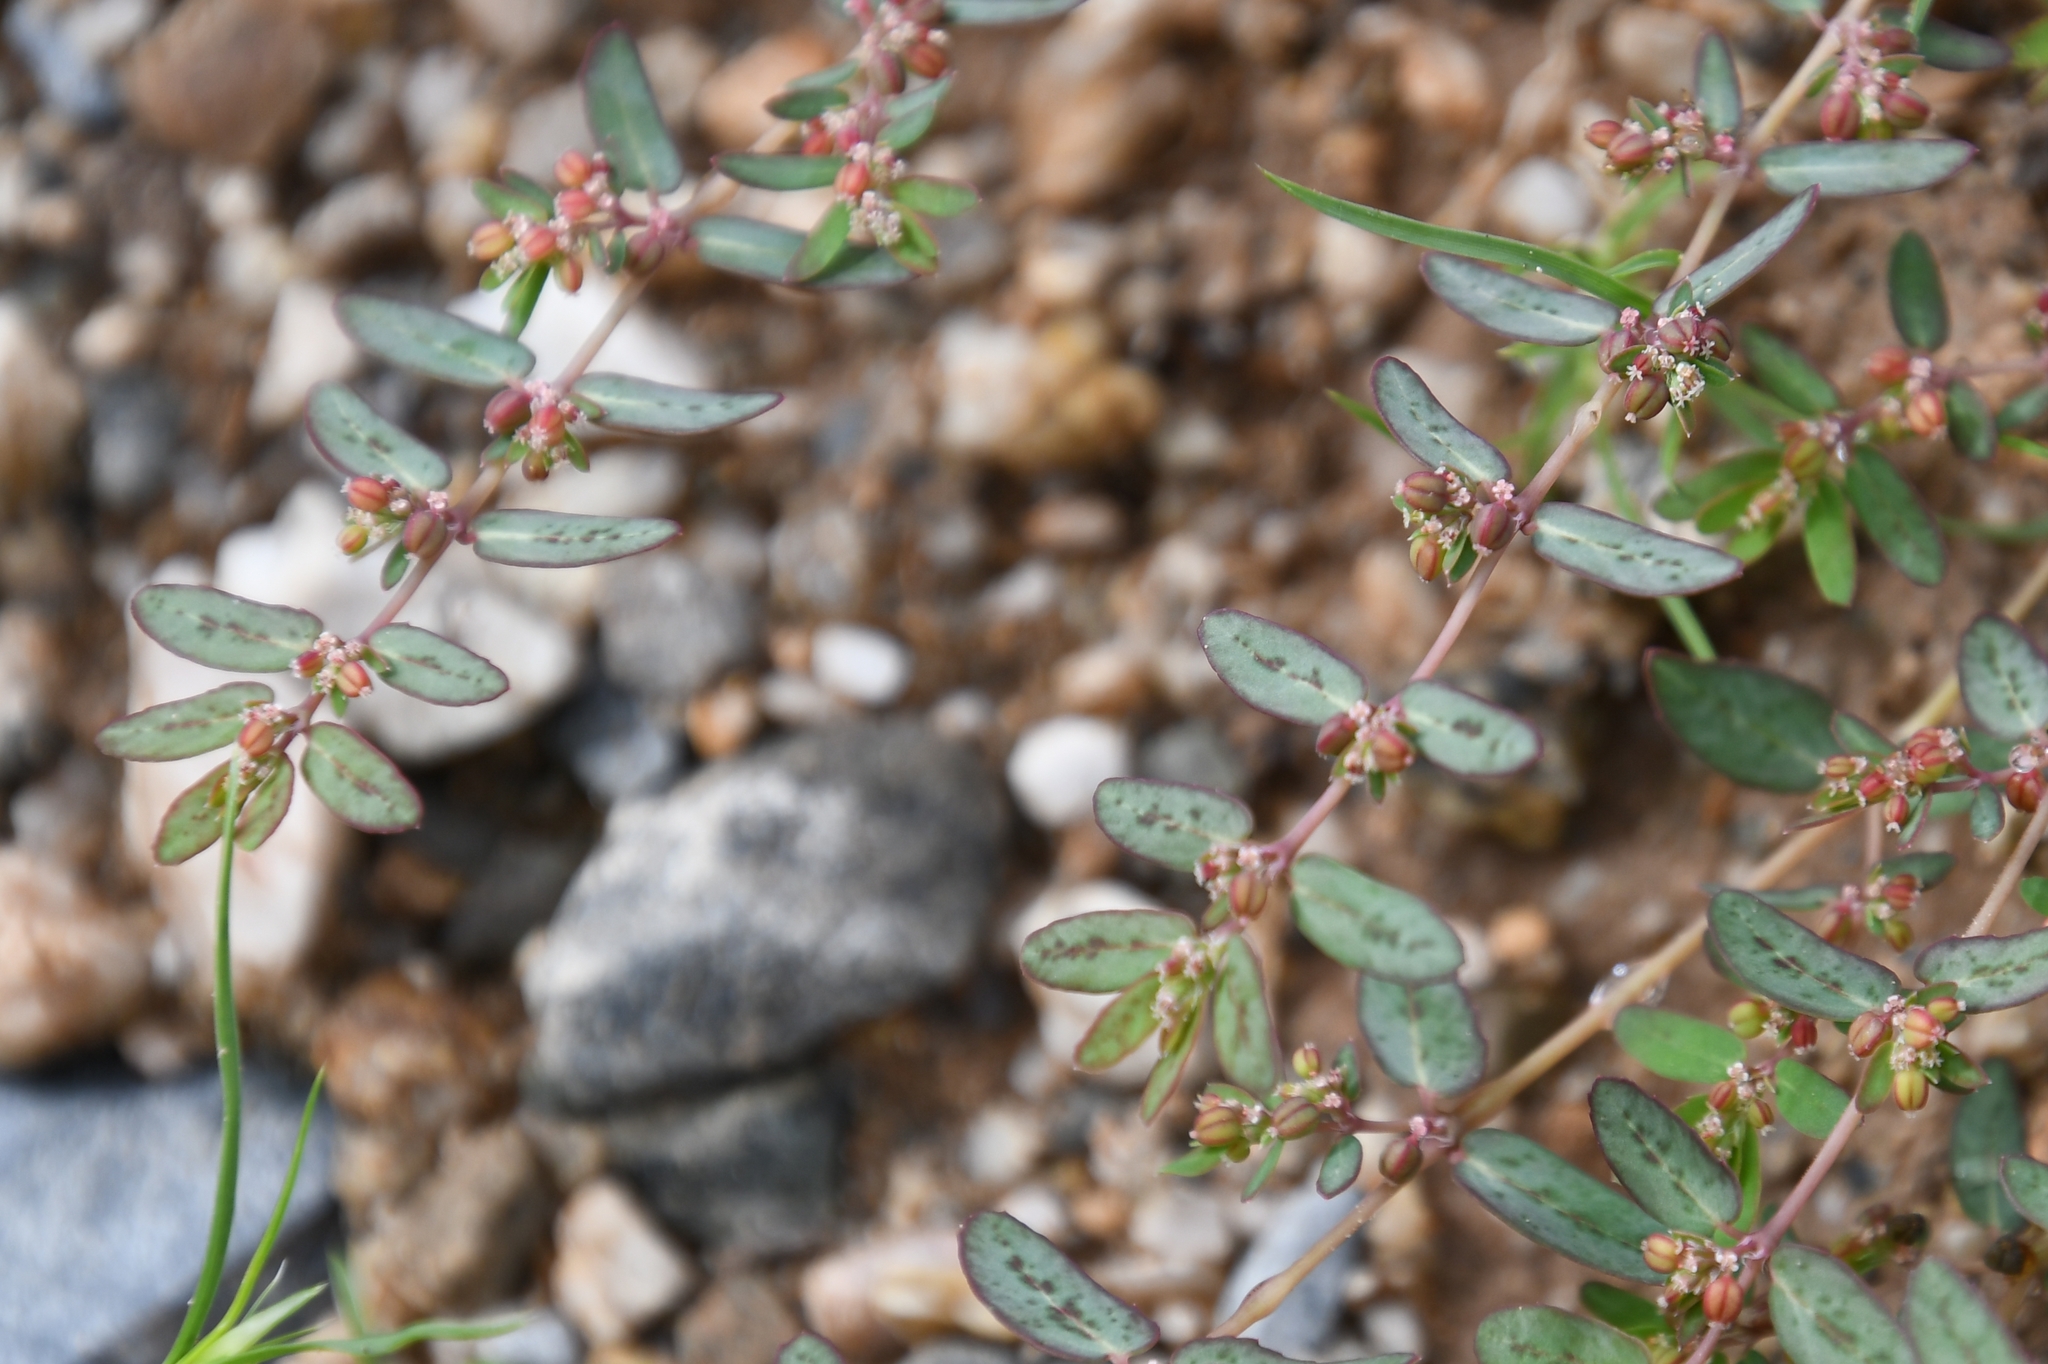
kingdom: Plantae
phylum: Tracheophyta
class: Magnoliopsida
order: Malpighiales
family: Euphorbiaceae
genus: Euphorbia
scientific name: Euphorbia abramsiana
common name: Abram's spurge
